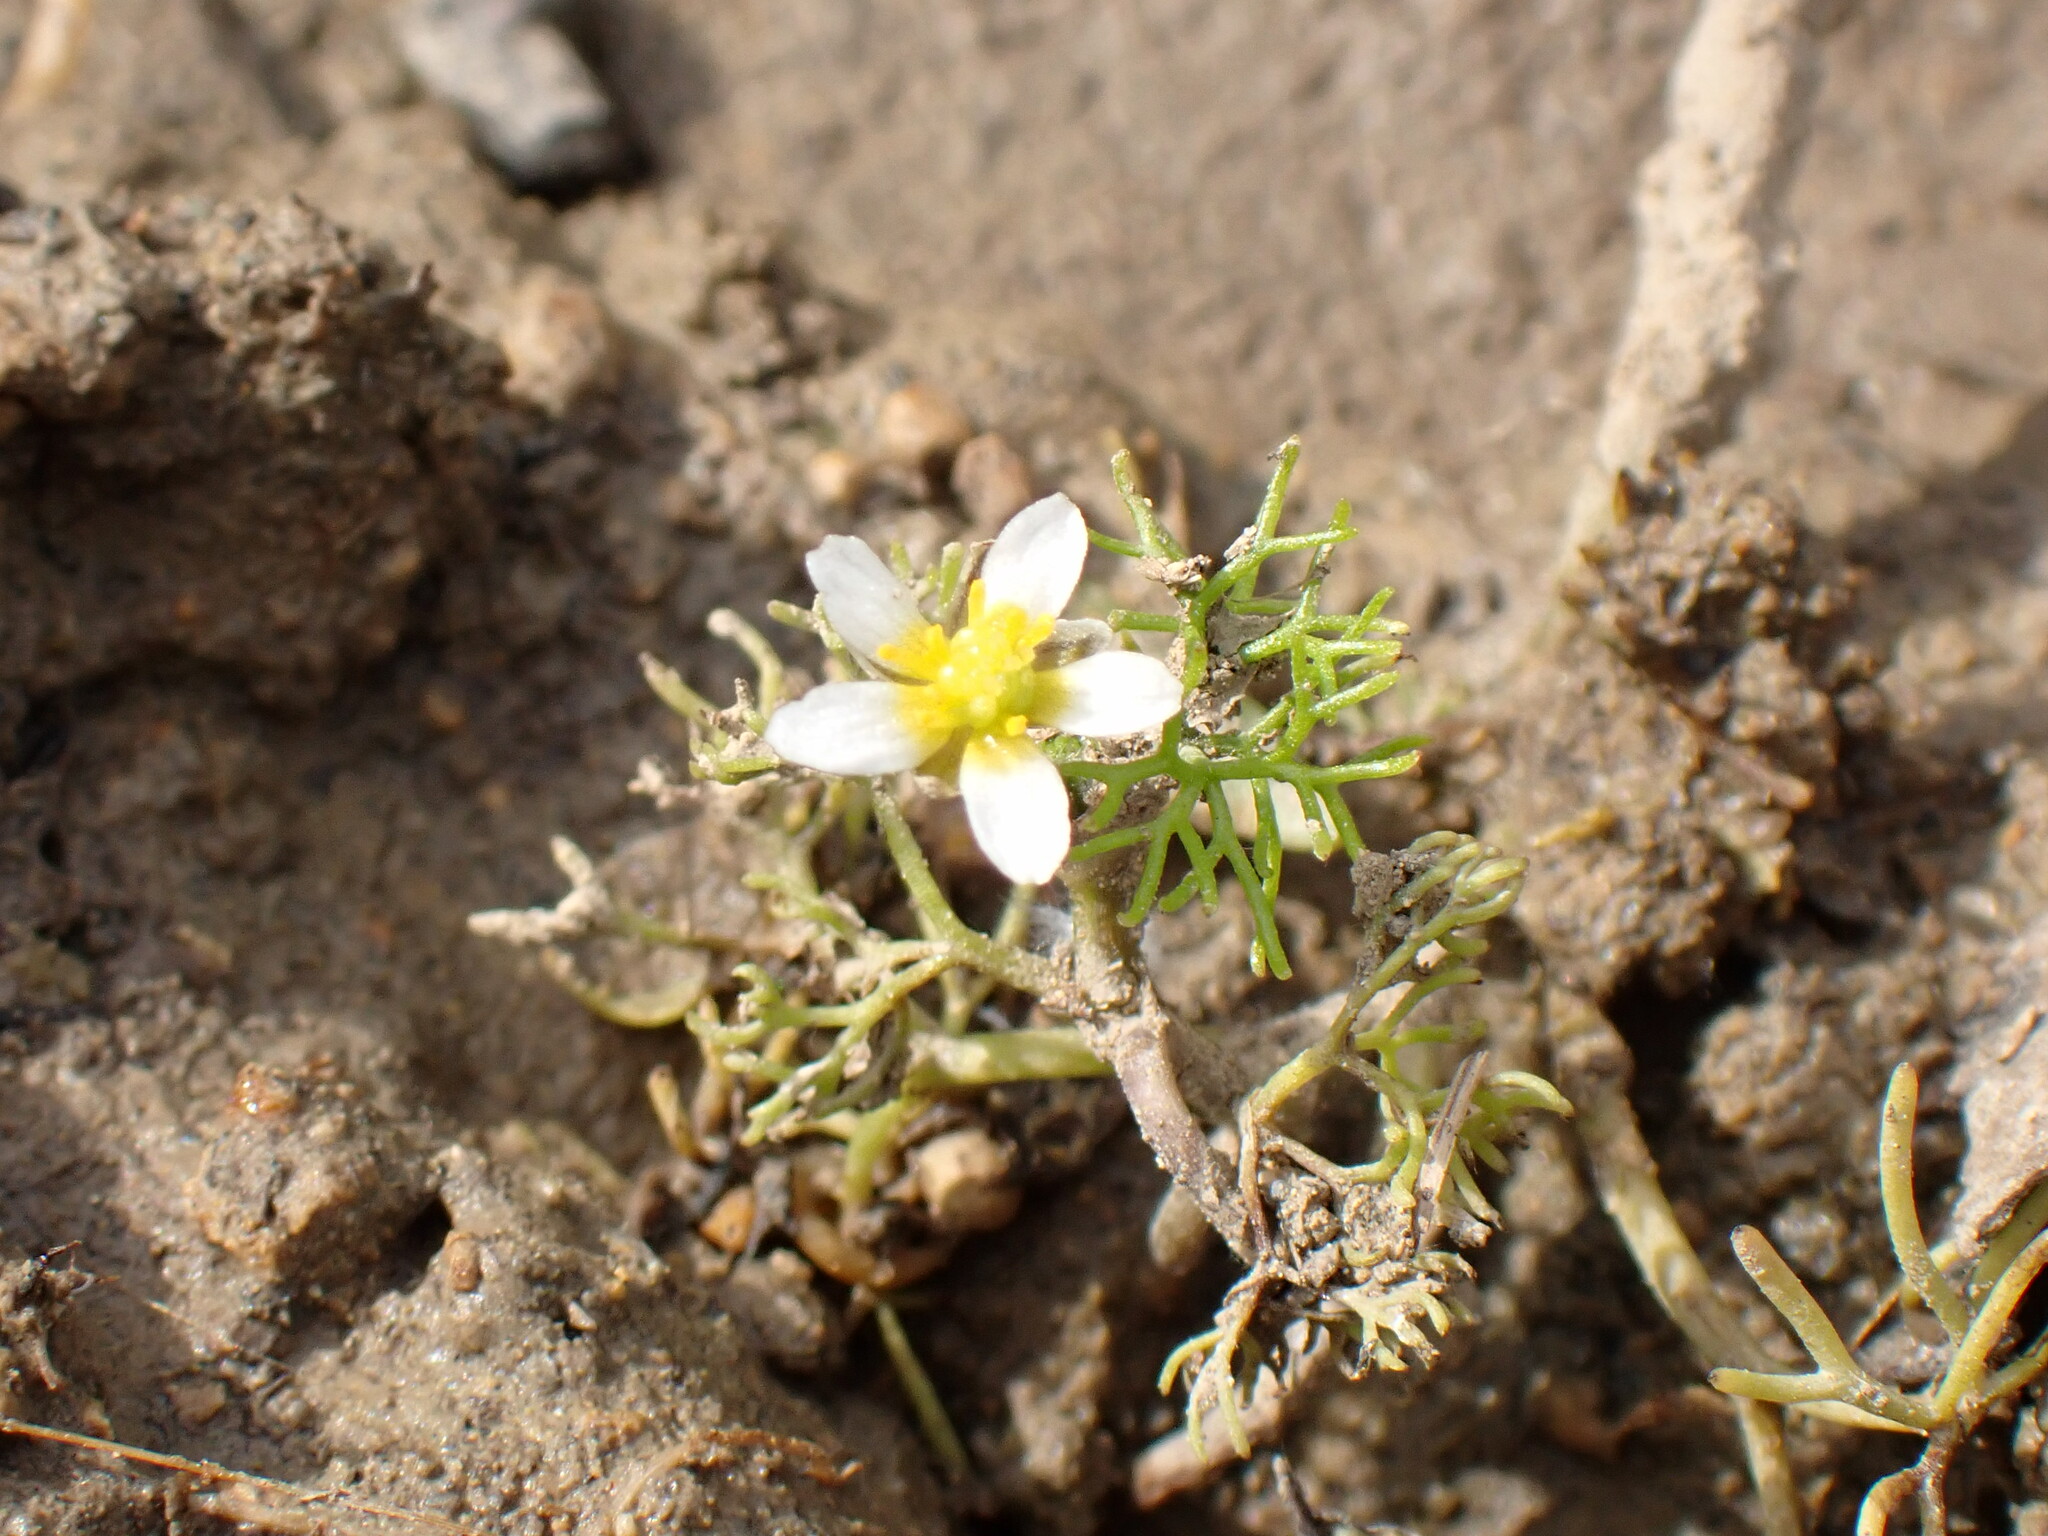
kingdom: Plantae
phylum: Tracheophyta
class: Magnoliopsida
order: Ranunculales
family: Ranunculaceae
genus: Ranunculus
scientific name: Ranunculus trichophyllus
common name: Thread-leaved water-crowfoot
